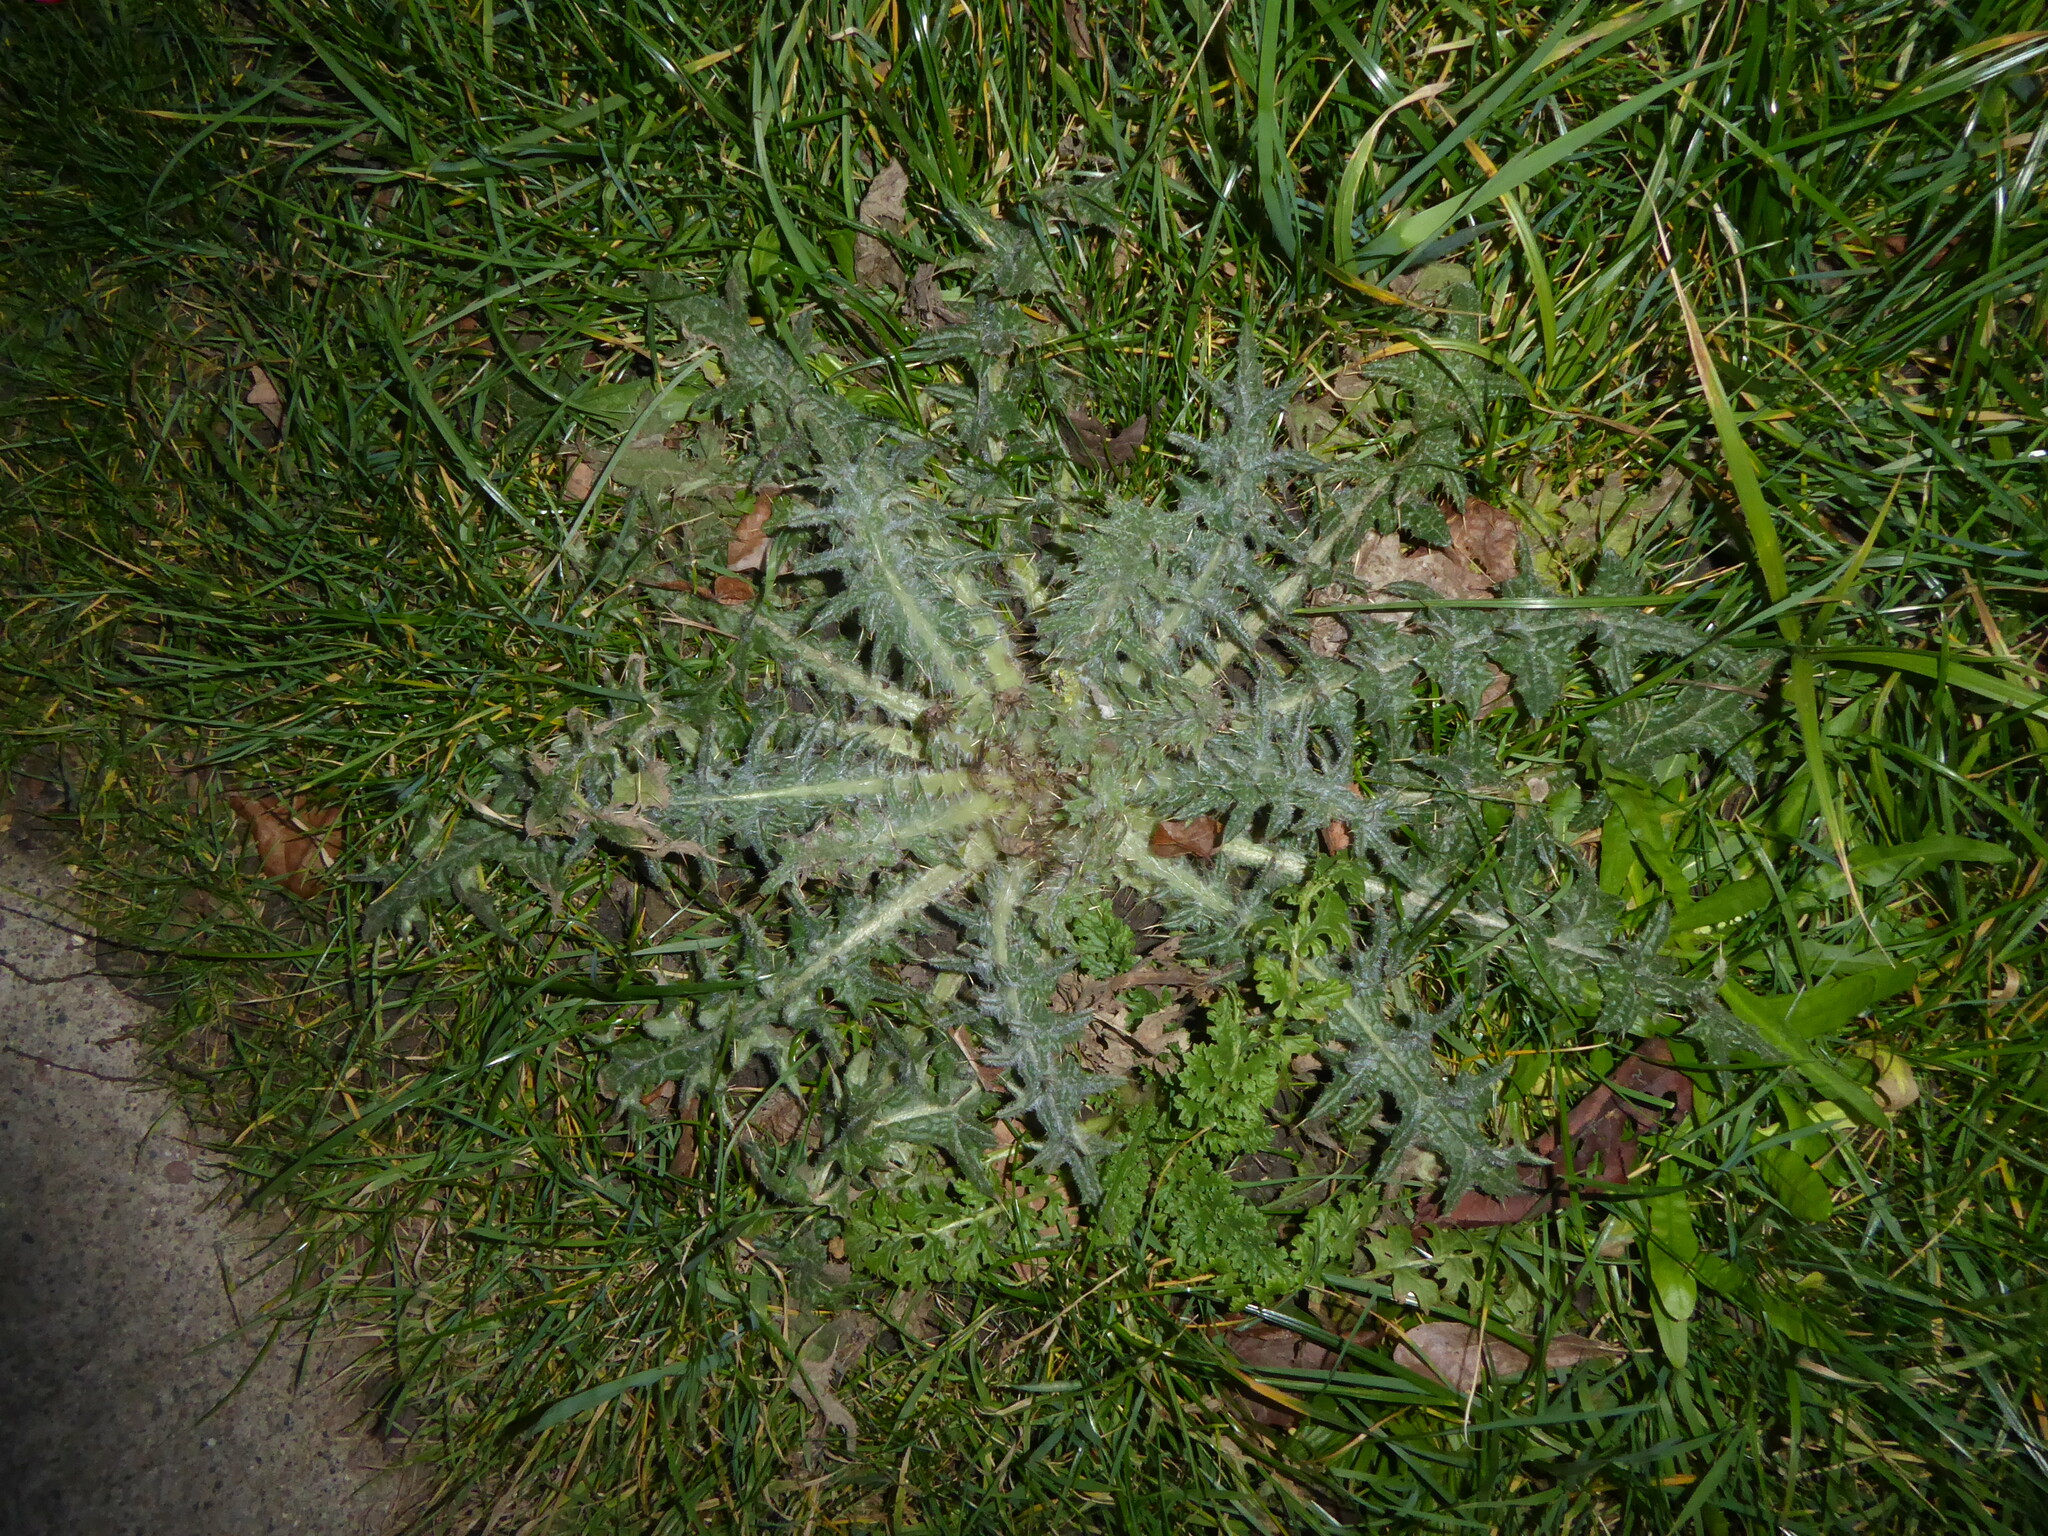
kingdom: Plantae
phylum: Tracheophyta
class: Magnoliopsida
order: Asterales
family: Asteraceae
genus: Cirsium
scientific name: Cirsium vulgare
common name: Bull thistle
